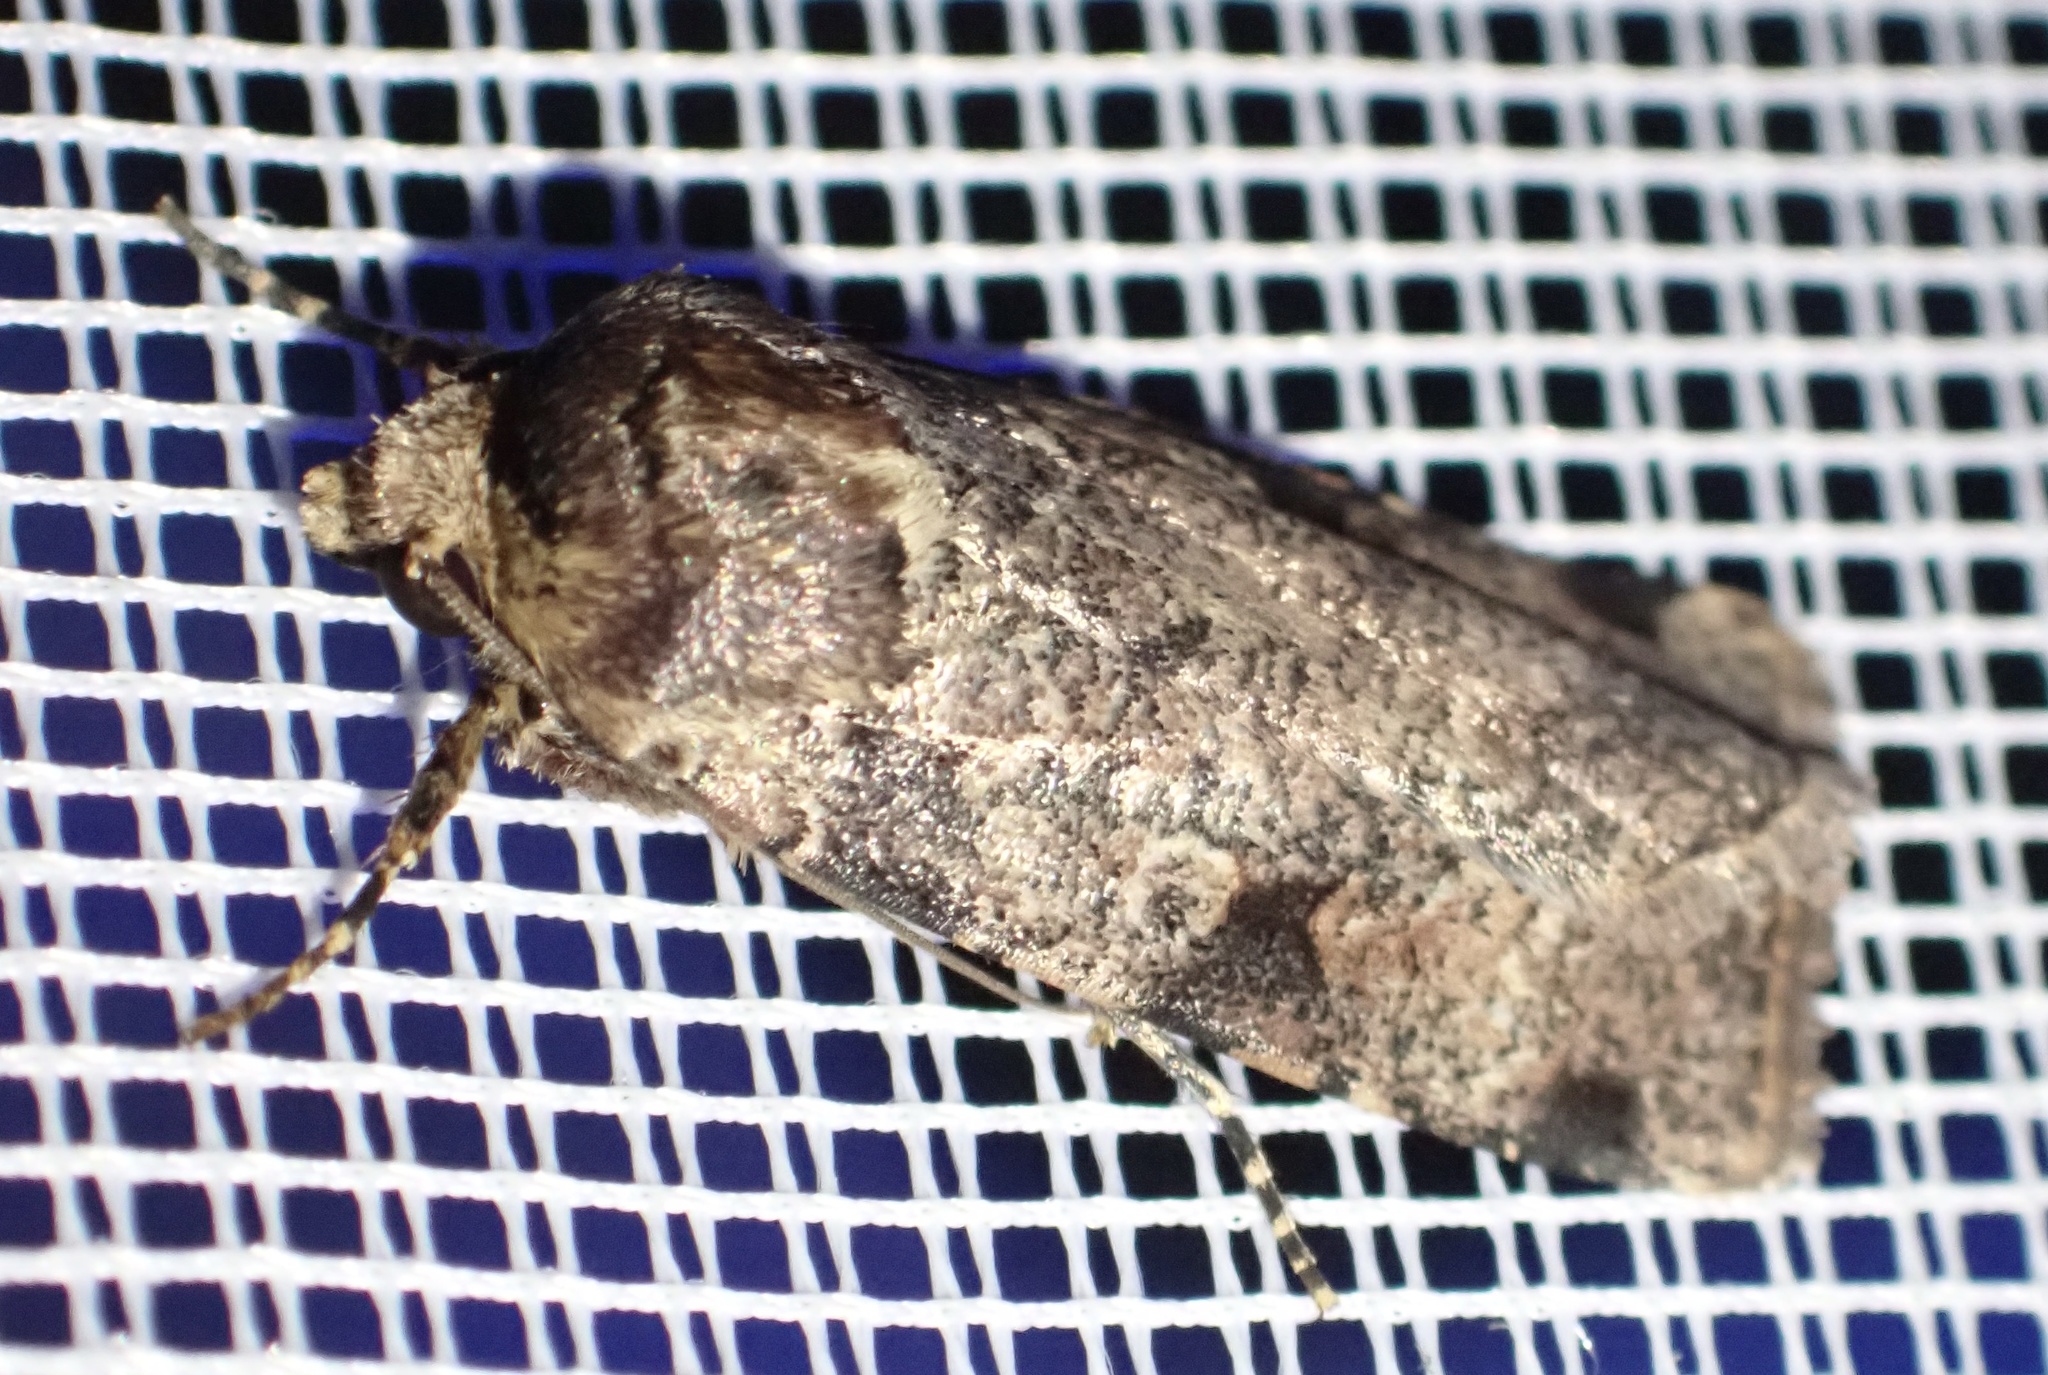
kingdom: Animalia
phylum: Arthropoda
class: Insecta
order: Lepidoptera
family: Noctuidae
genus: Mentaxya
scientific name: Mentaxya ignicollis
